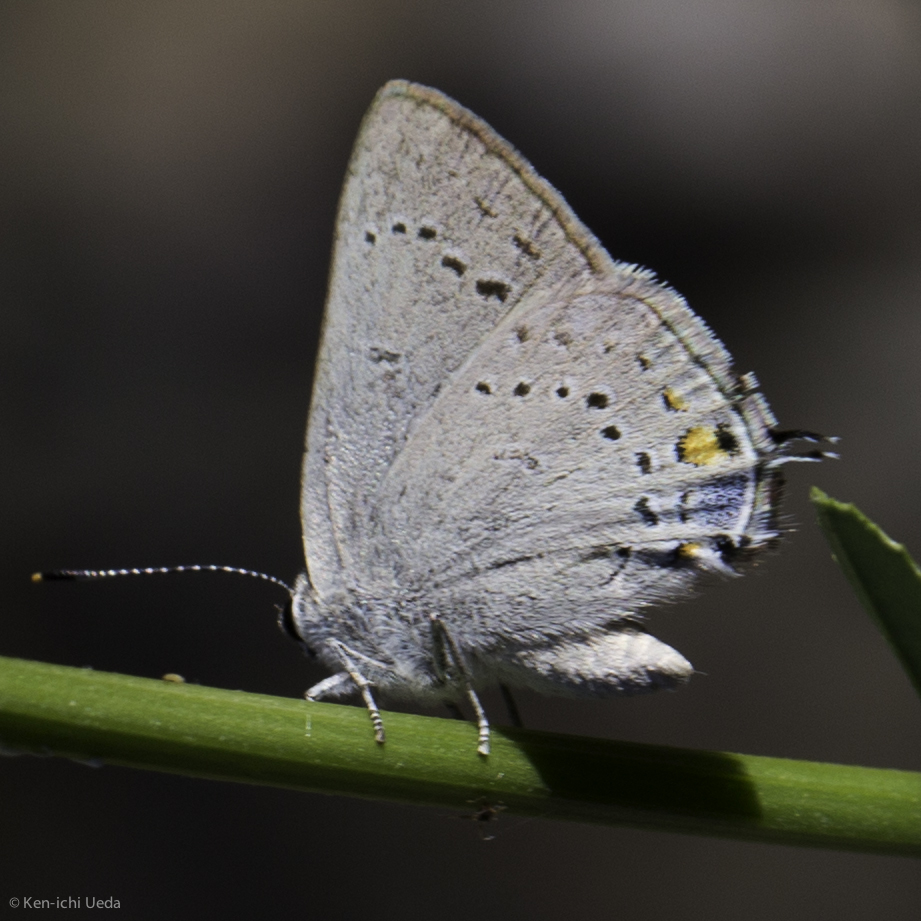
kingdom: Animalia
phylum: Arthropoda
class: Insecta
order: Lepidoptera
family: Lycaenidae
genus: Strymon
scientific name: Strymon sylvinus
